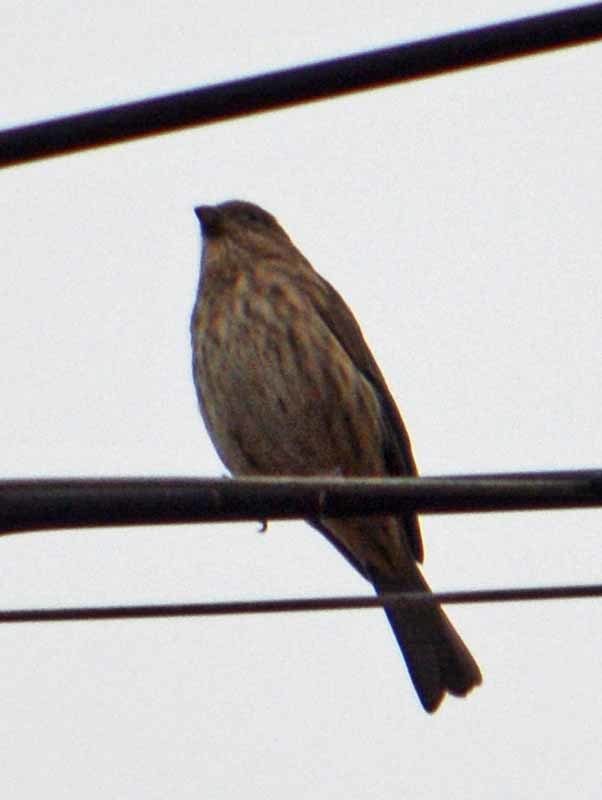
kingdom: Animalia
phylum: Chordata
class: Aves
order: Passeriformes
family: Fringillidae
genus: Haemorhous
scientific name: Haemorhous mexicanus
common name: House finch
